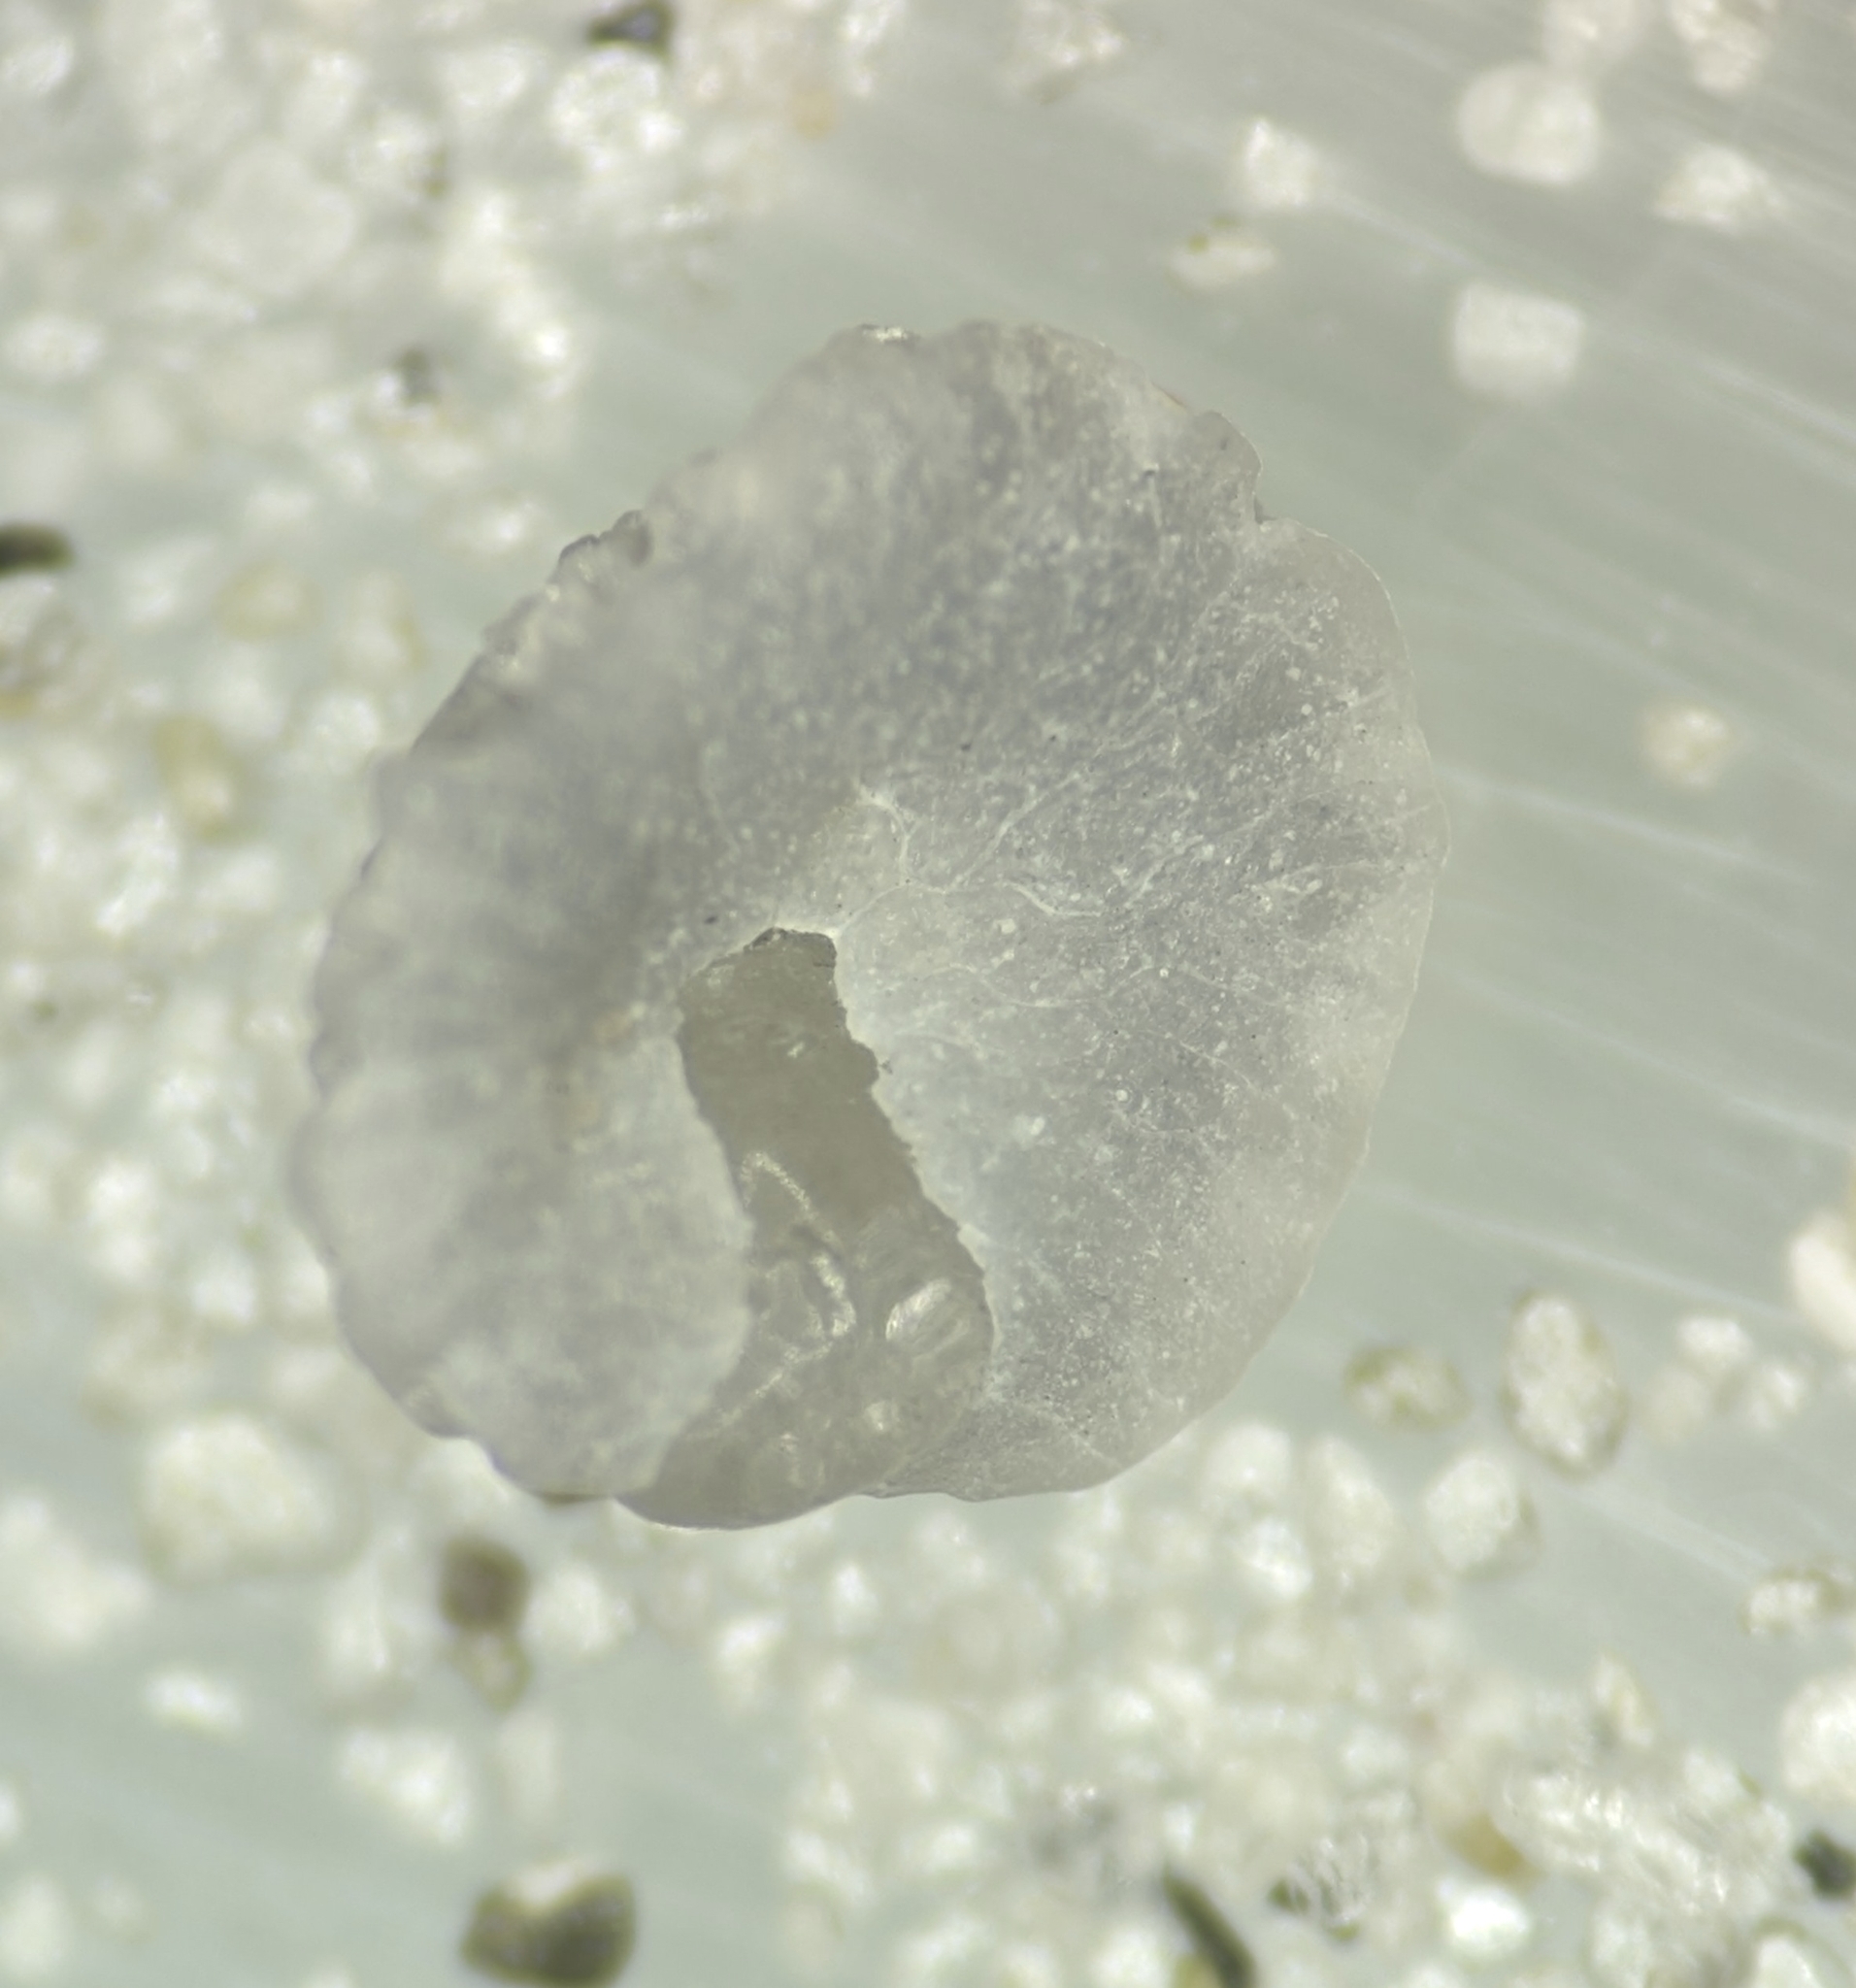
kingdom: Animalia
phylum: Bryozoa
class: Gymnolaemata
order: Cheilostomatida
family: Cupuladriidae
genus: Discoporella
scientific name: Discoporella umbellata
